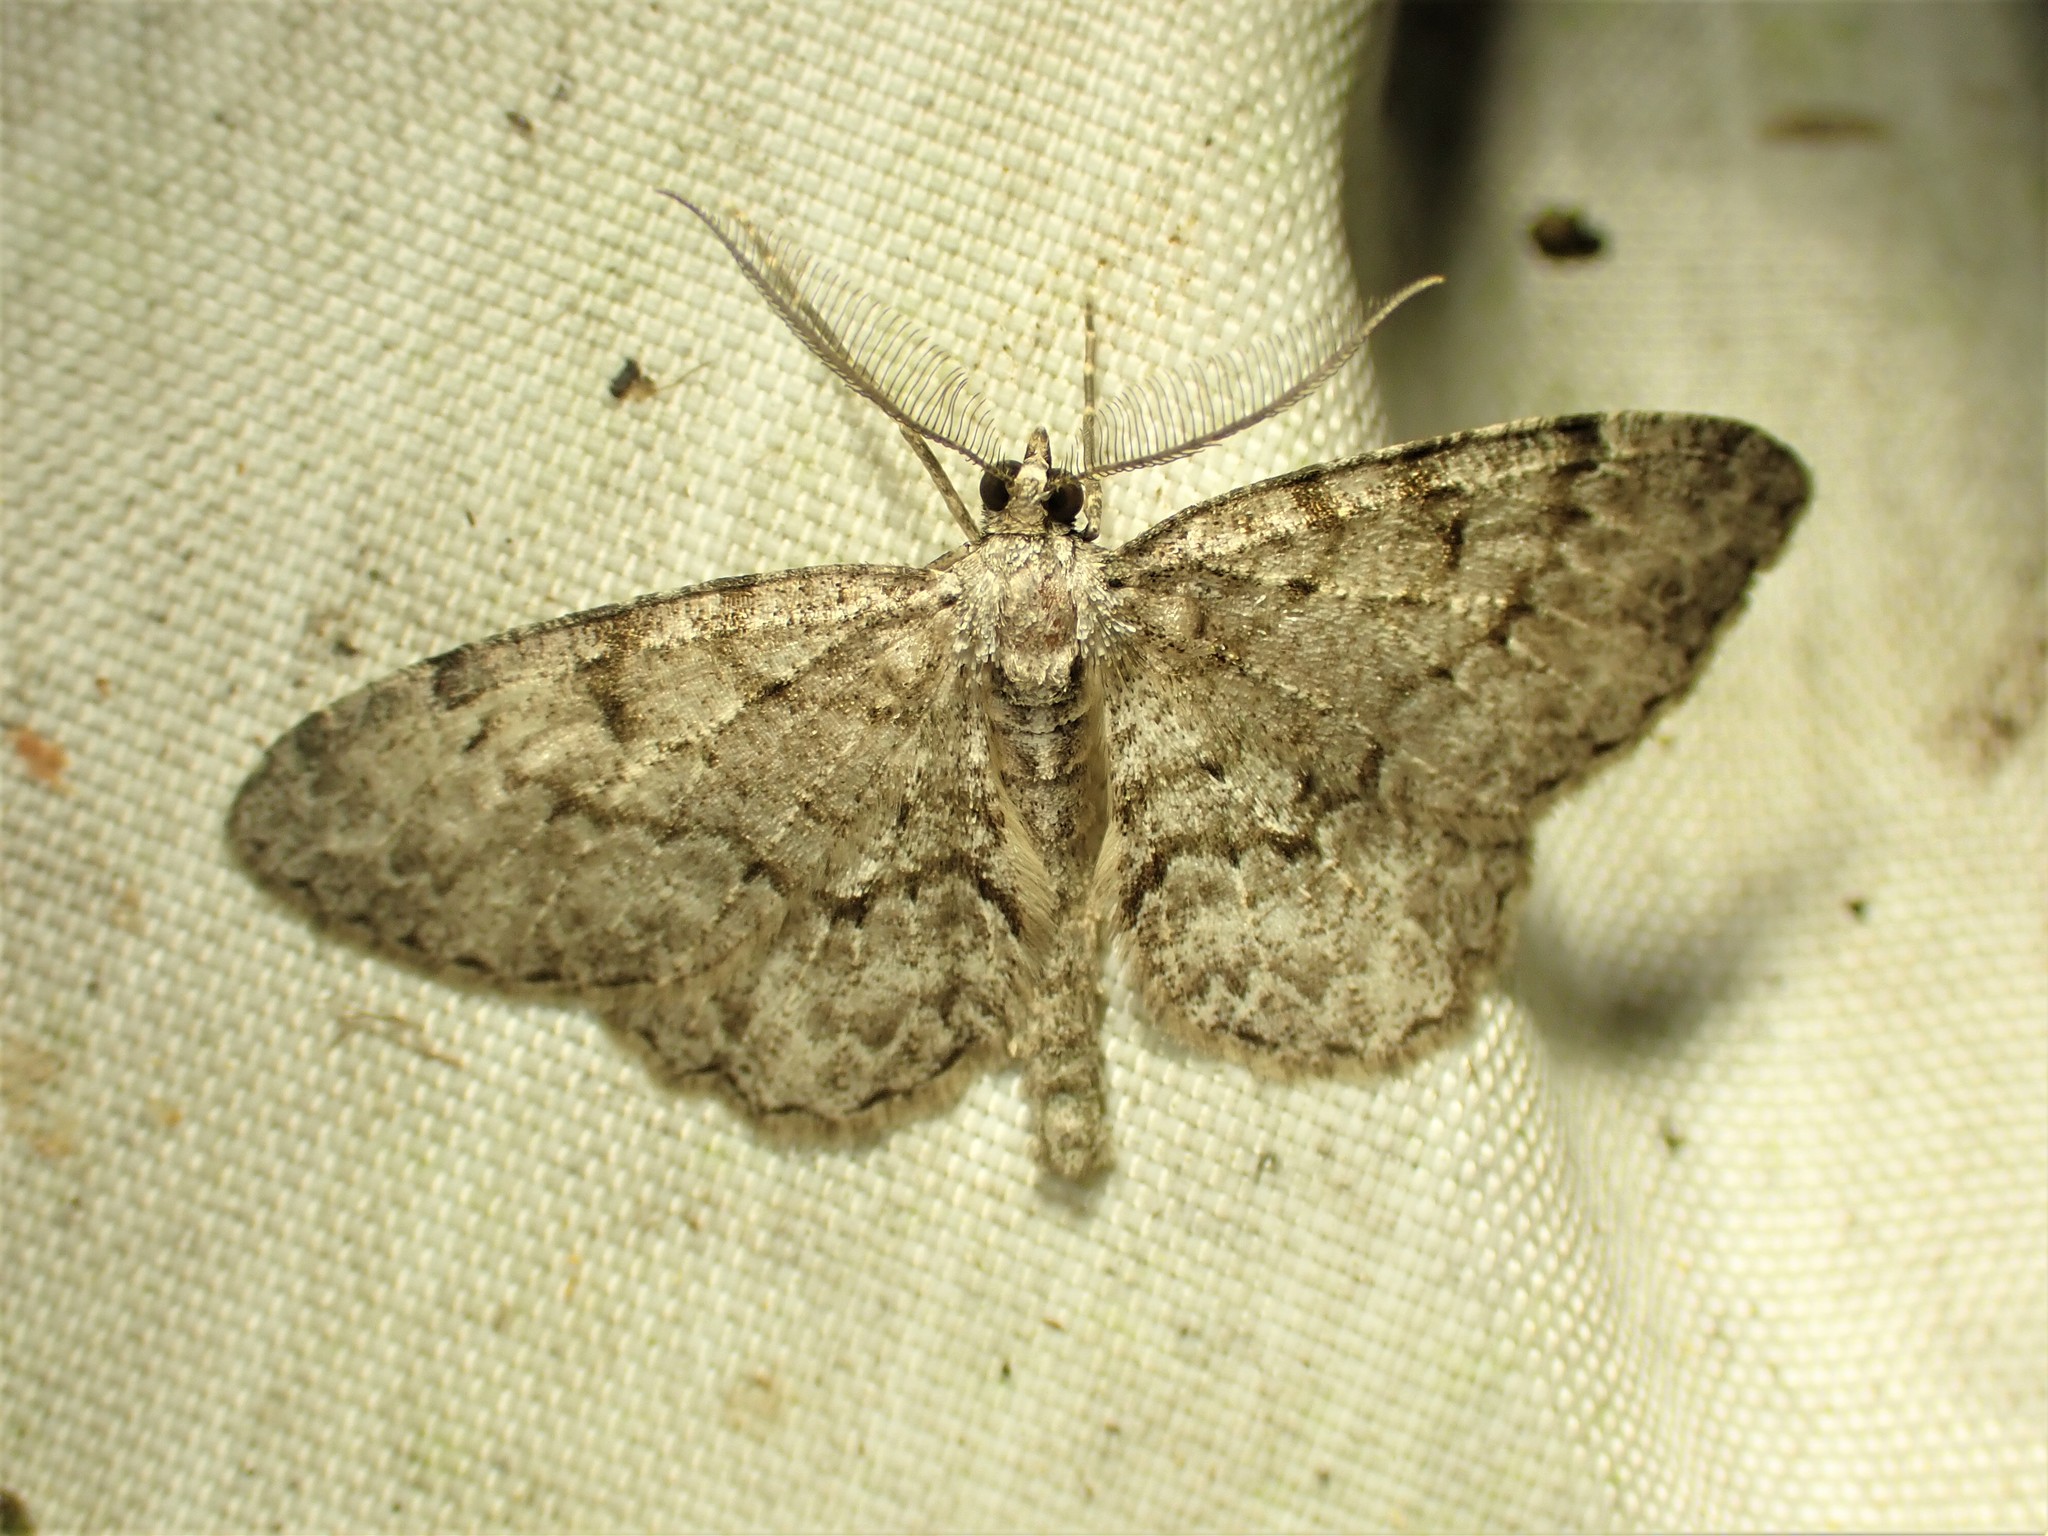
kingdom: Animalia
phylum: Arthropoda
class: Insecta
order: Lepidoptera
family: Geometridae
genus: Protoboarmia
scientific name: Protoboarmia porcelaria
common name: Porcelain gray
